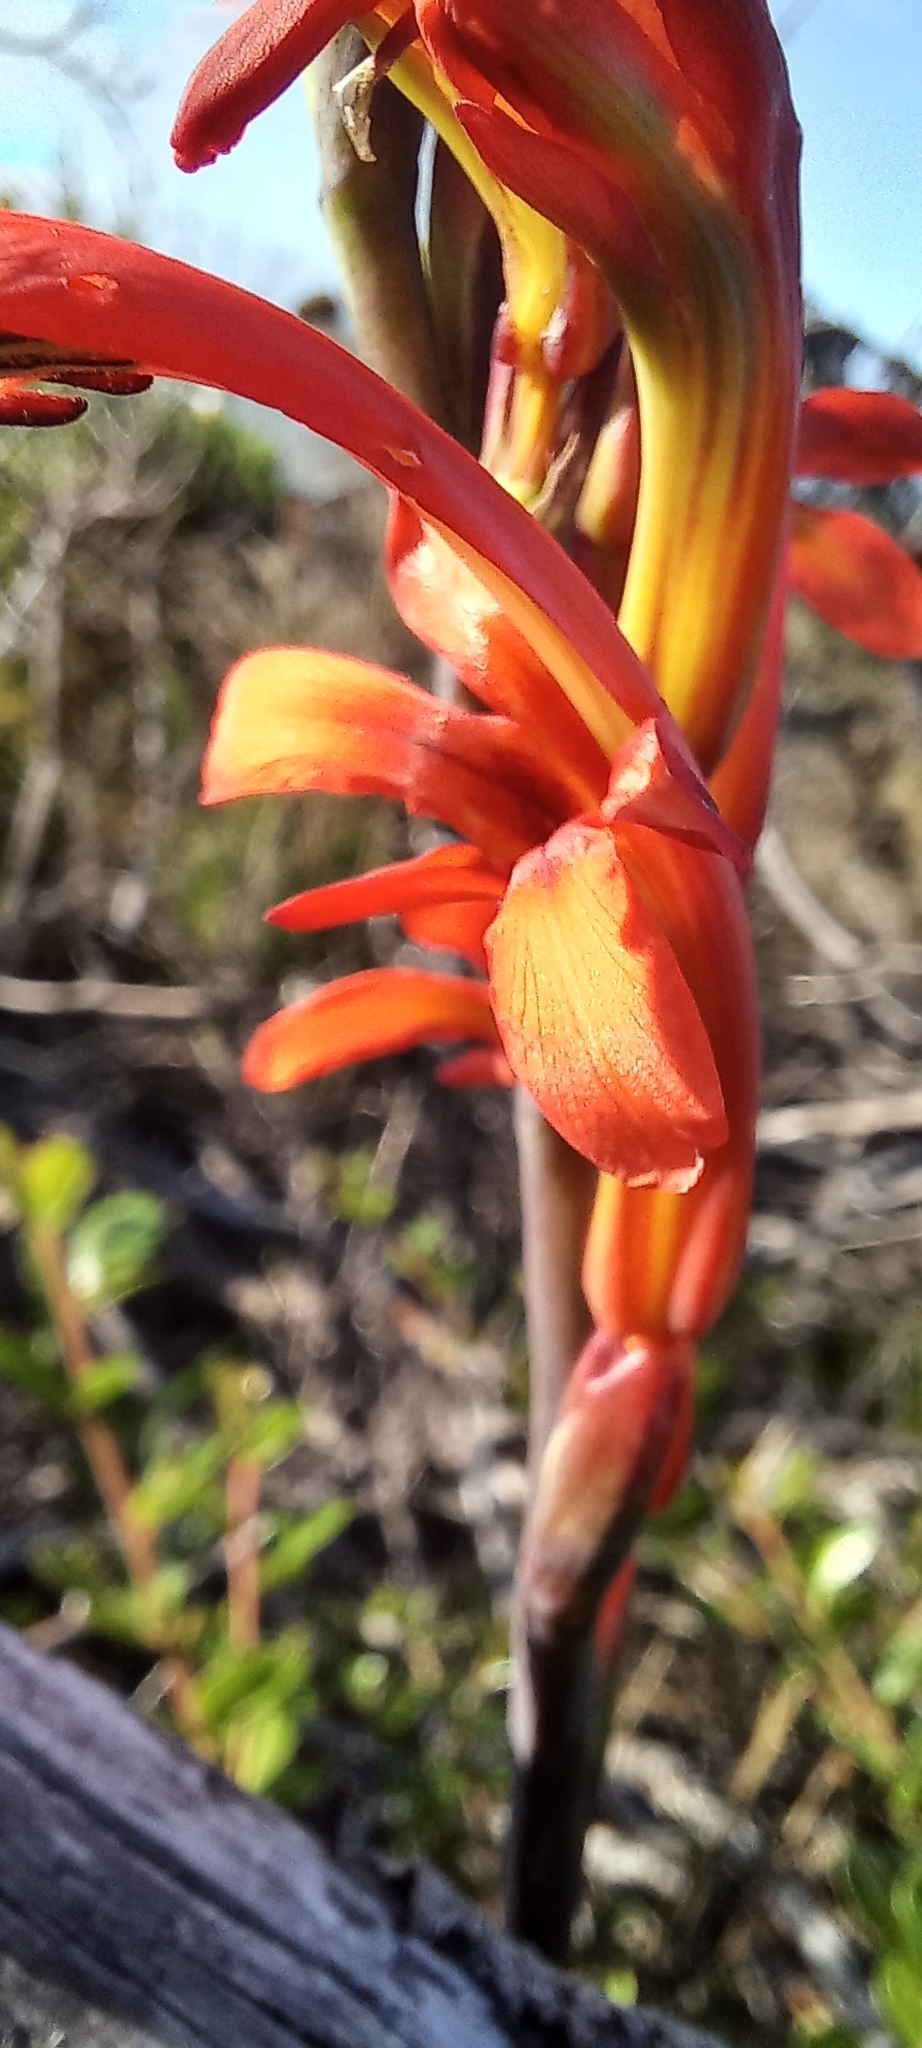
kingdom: Plantae
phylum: Tracheophyta
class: Liliopsida
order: Asparagales
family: Iridaceae
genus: Chasmanthe
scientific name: Chasmanthe aethiopica
